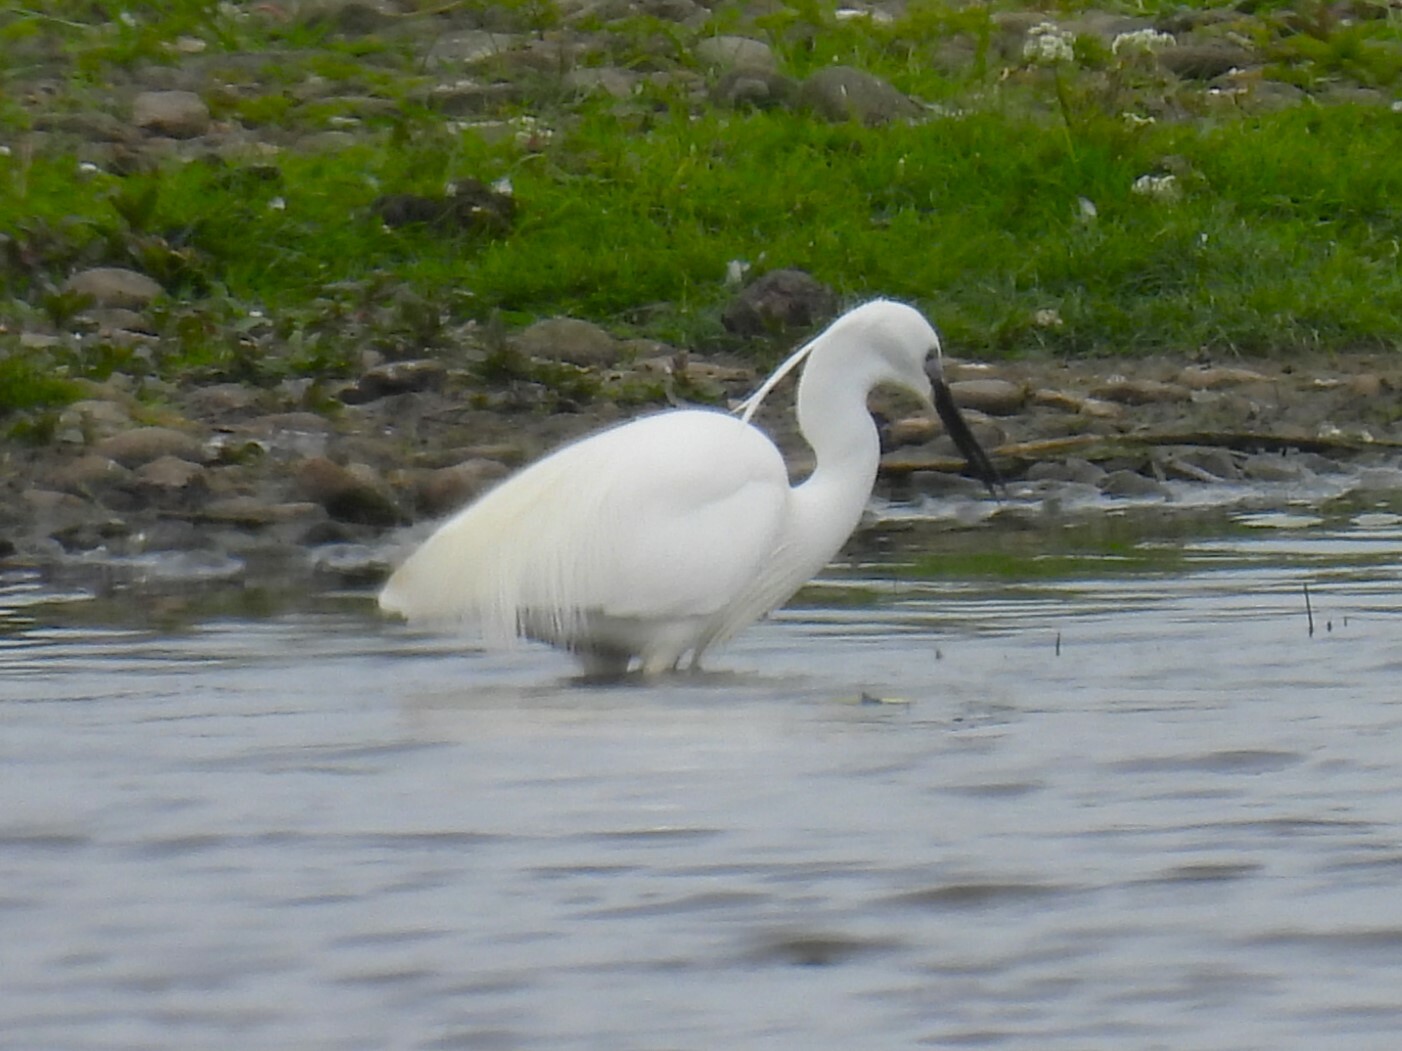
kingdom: Animalia
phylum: Chordata
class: Aves
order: Pelecaniformes
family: Ardeidae
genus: Egretta
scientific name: Egretta garzetta
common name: Little egret
